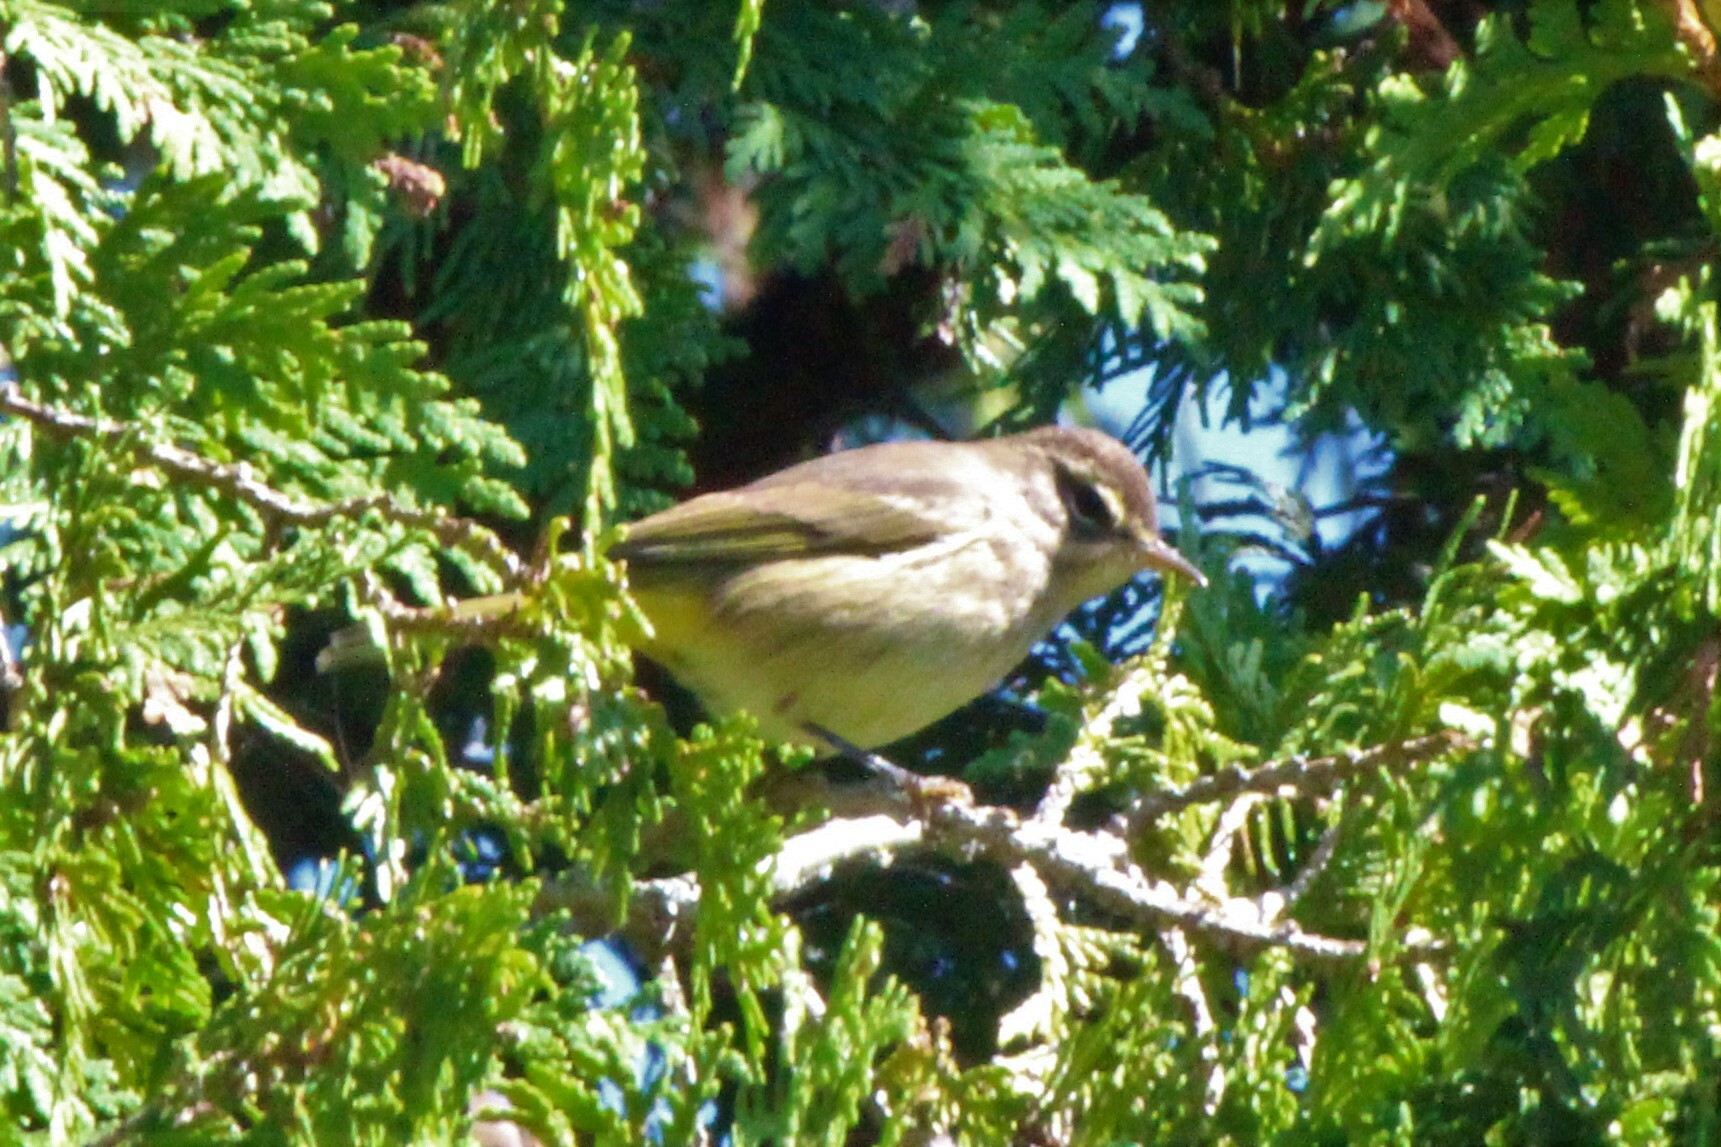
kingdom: Animalia
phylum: Chordata
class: Aves
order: Passeriformes
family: Parulidae
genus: Setophaga
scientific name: Setophaga palmarum
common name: Palm warbler
